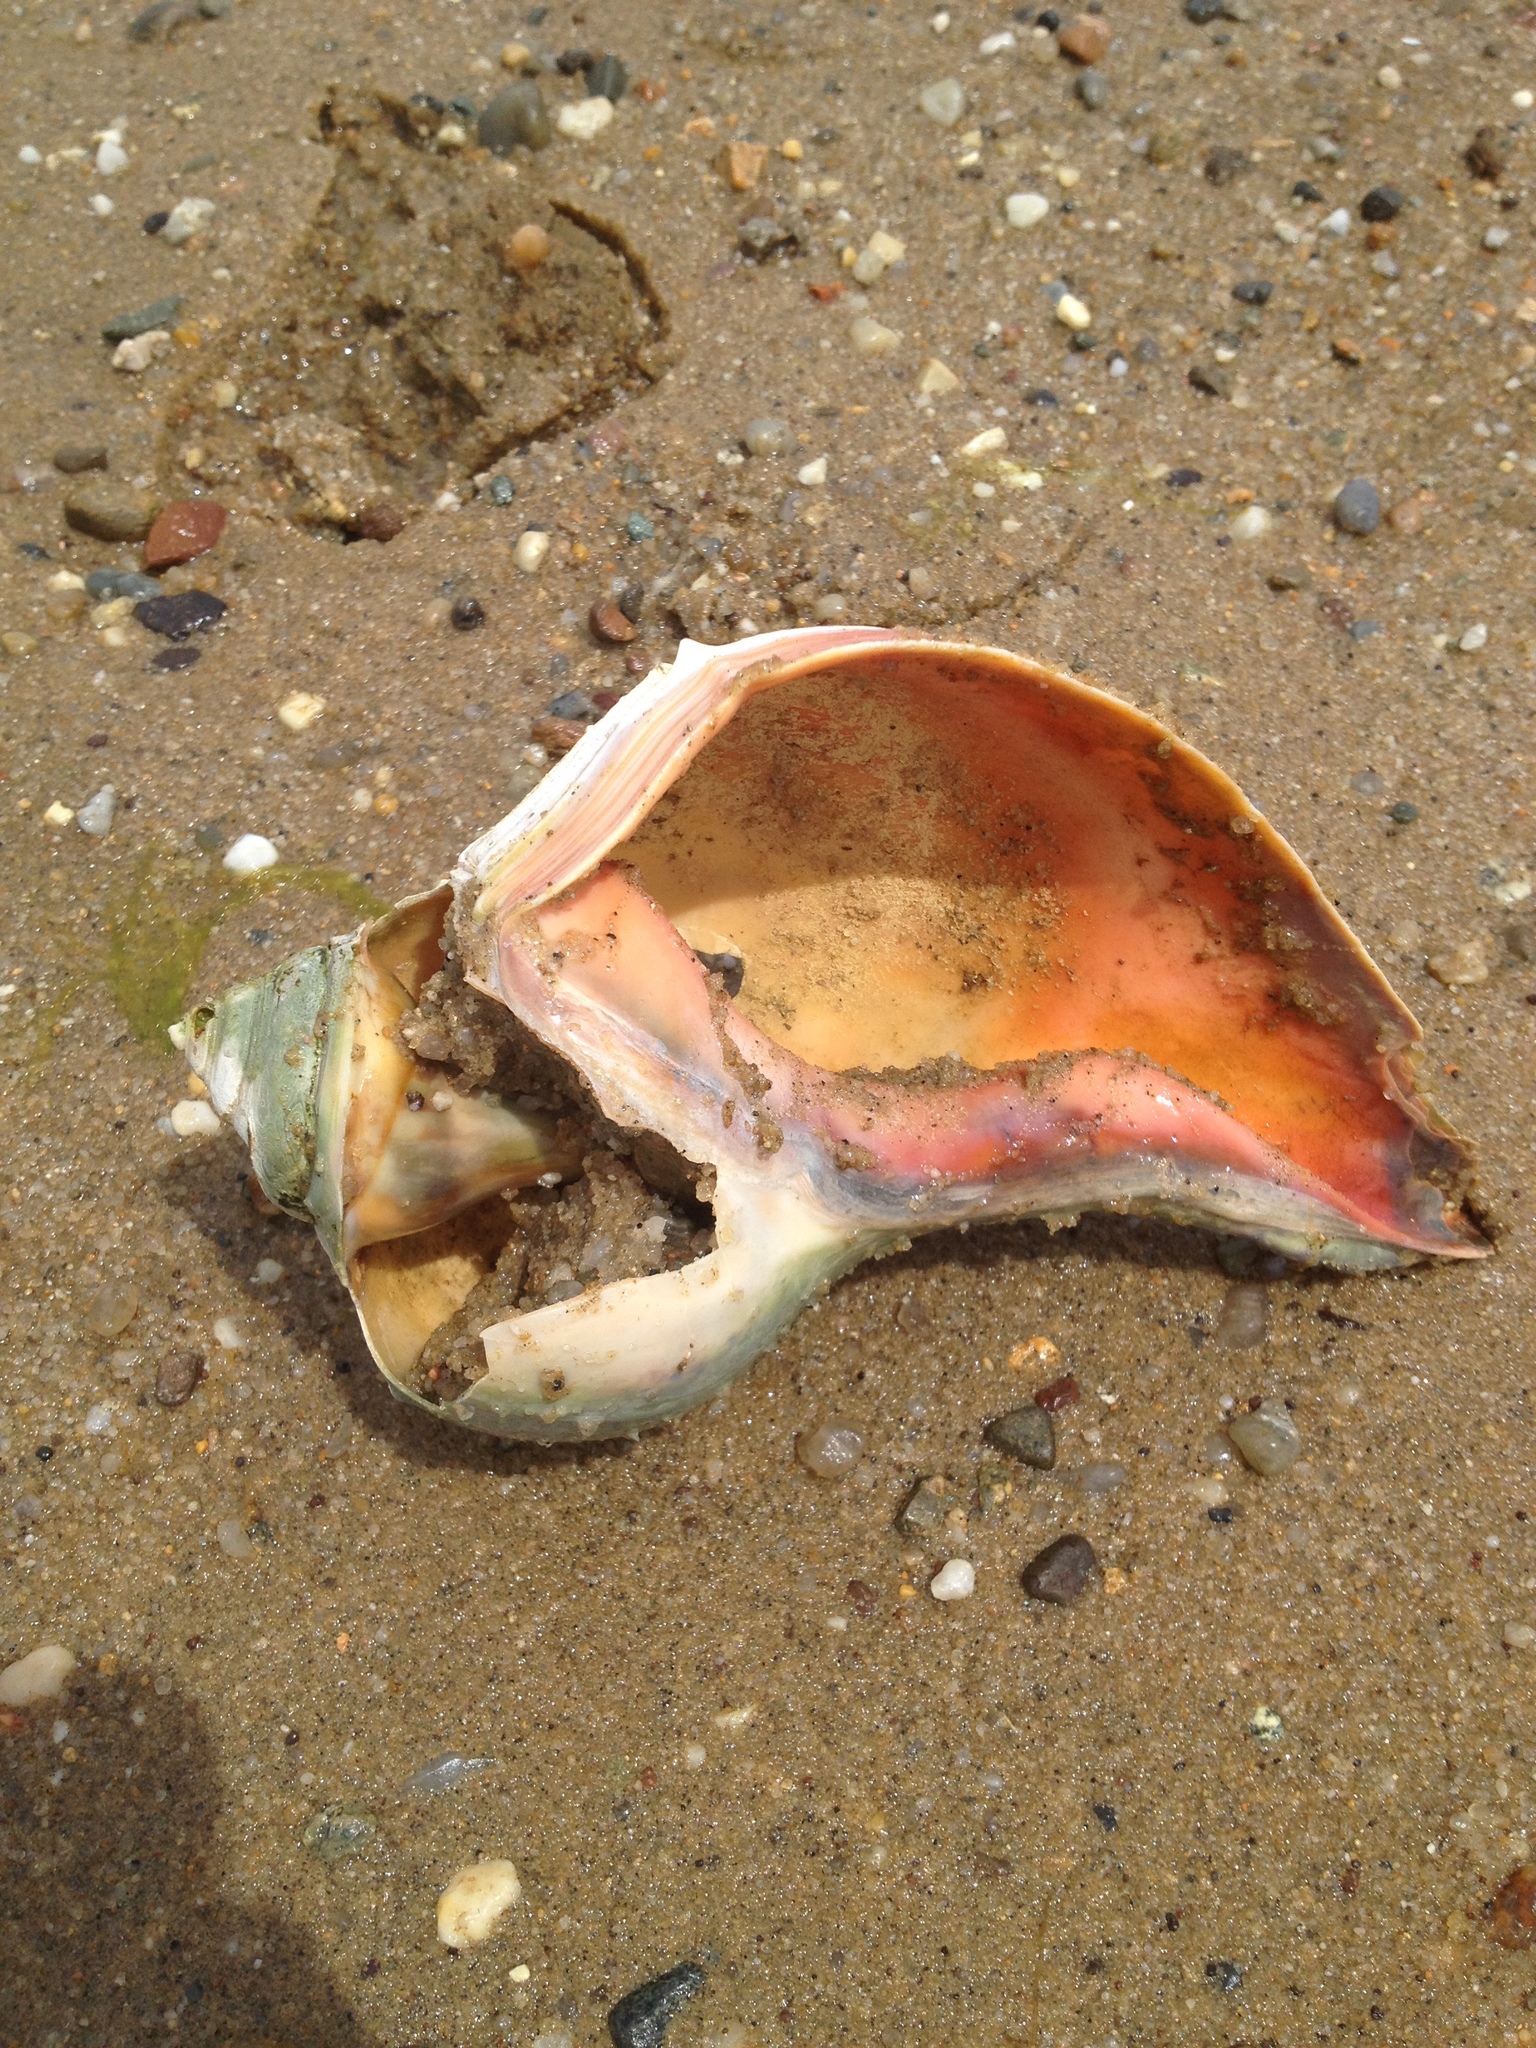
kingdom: Animalia
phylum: Mollusca
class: Gastropoda
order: Neogastropoda
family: Busyconidae
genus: Busycon
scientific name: Busycon carica
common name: Knobbed whelk
